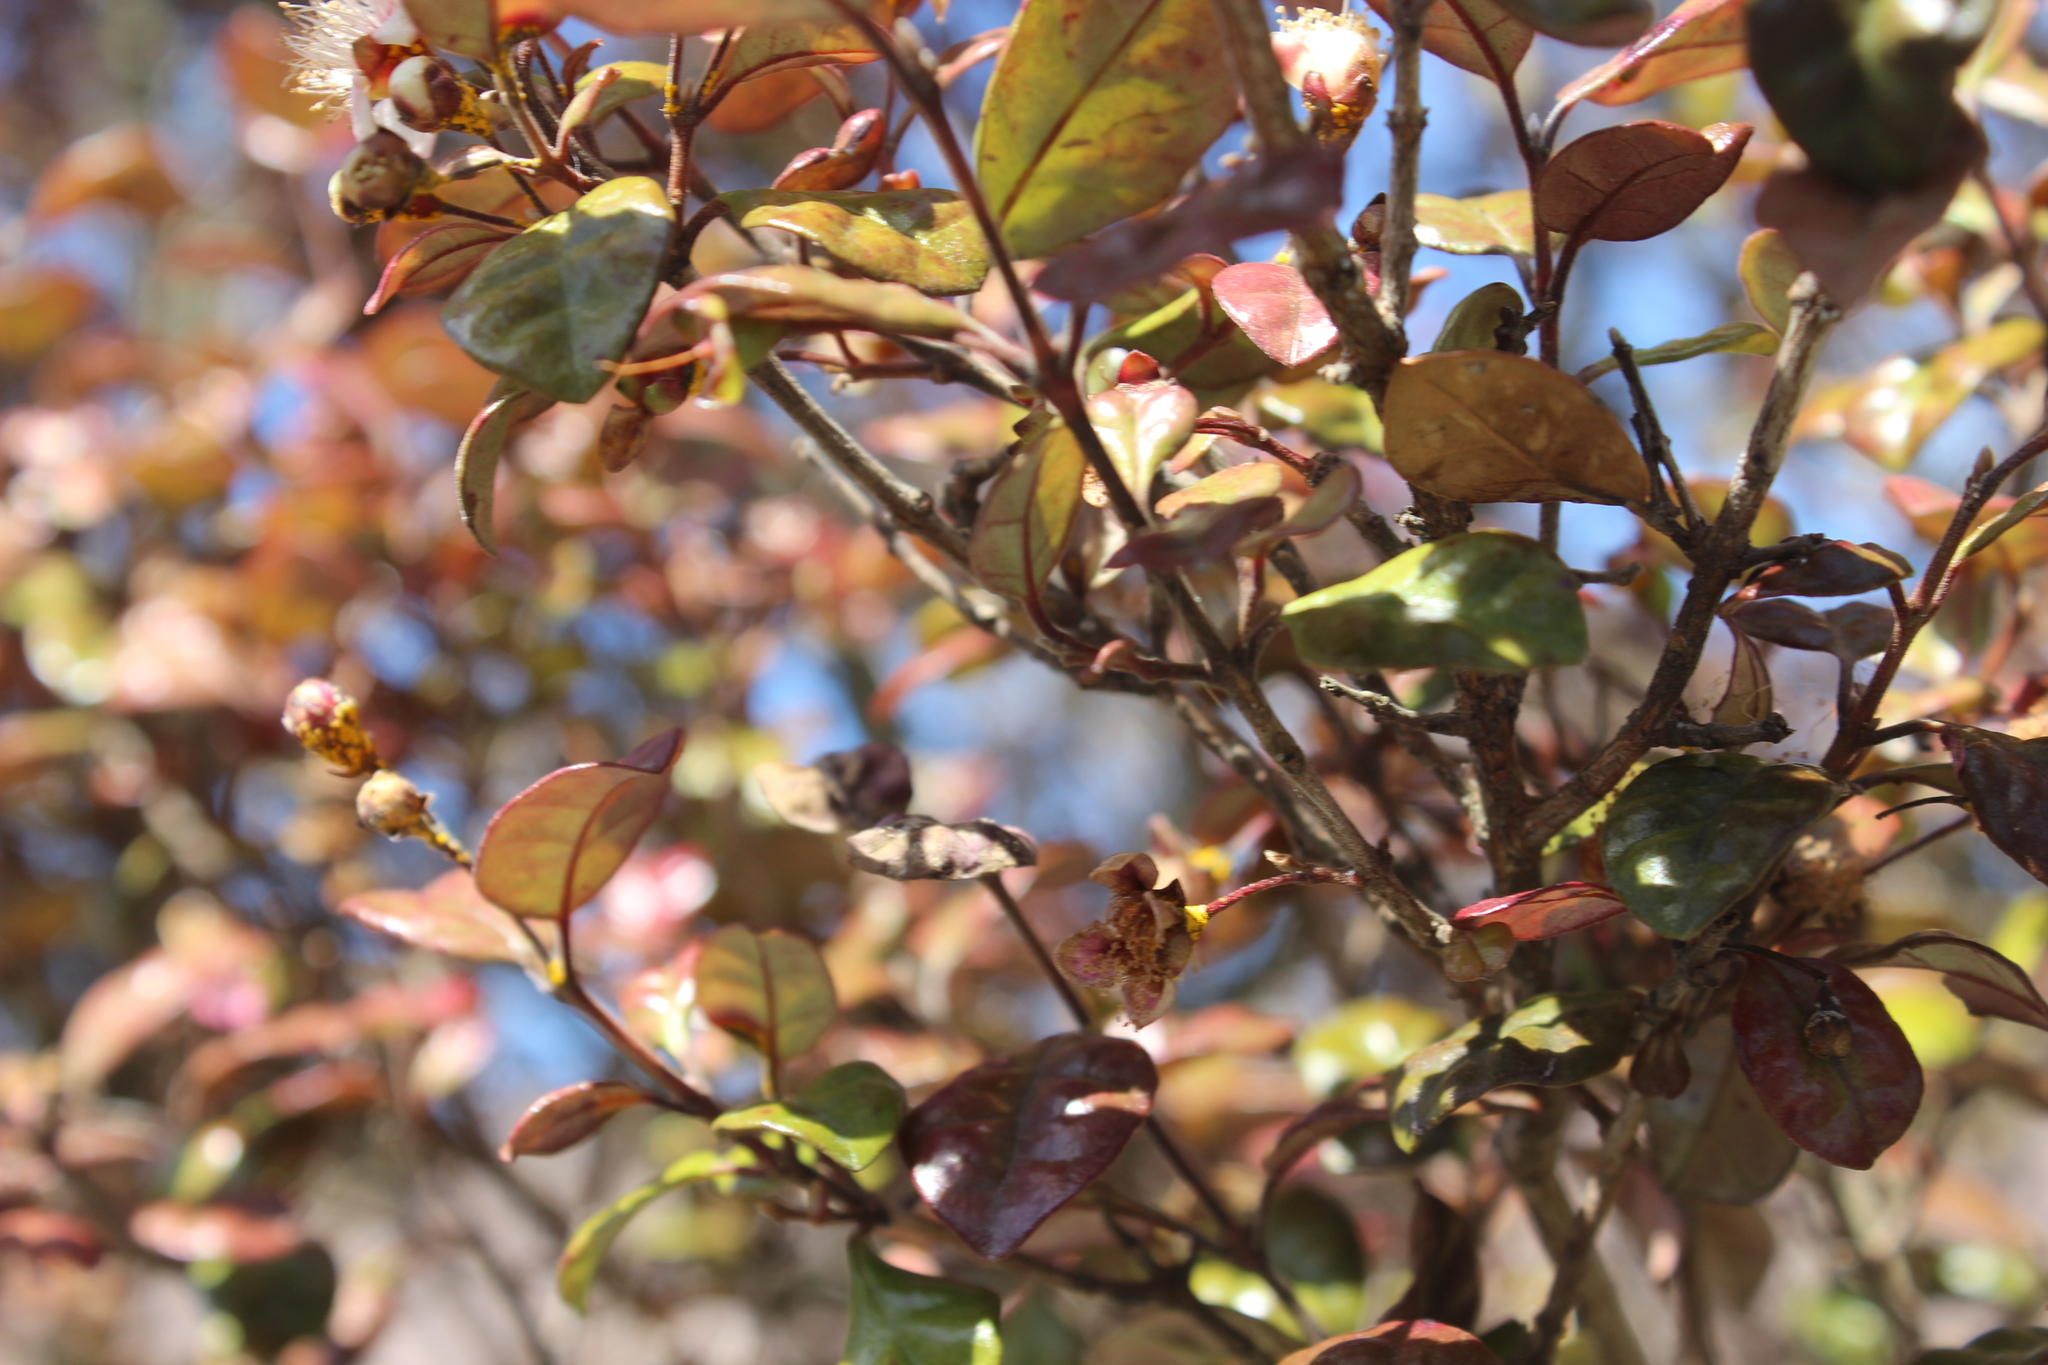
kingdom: Fungi
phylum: Basidiomycota
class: Pucciniomycetes
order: Pucciniales
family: Sphaerophragmiaceae
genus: Austropuccinia
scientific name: Austropuccinia psidii
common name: Myrtle rust
